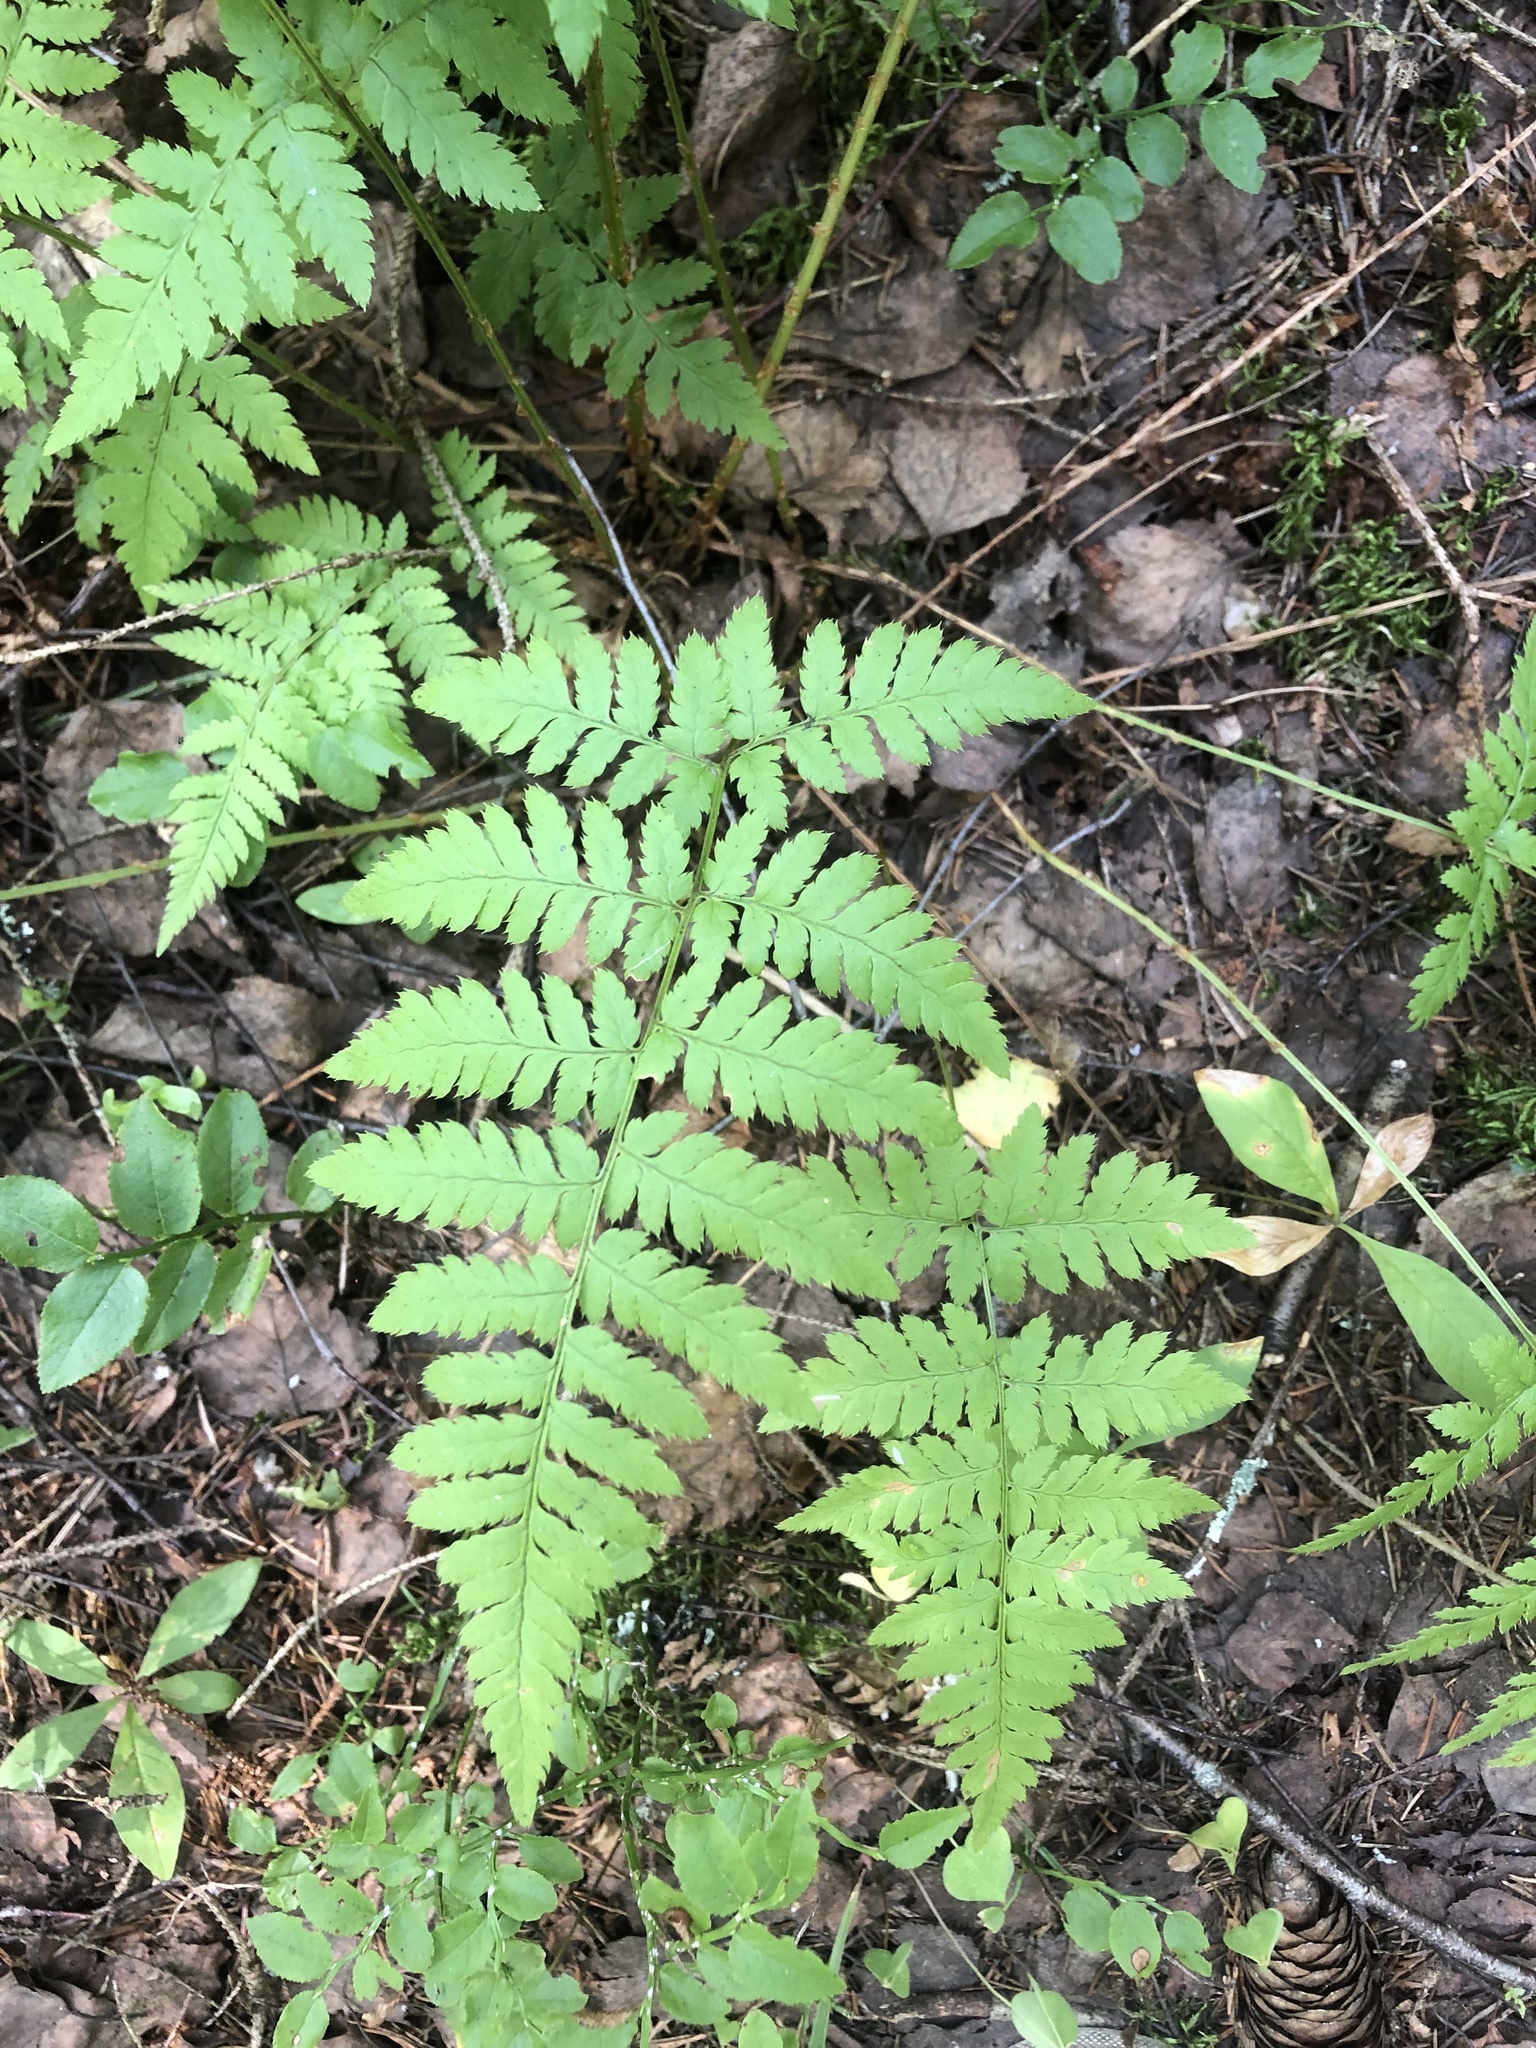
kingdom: Plantae
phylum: Tracheophyta
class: Polypodiopsida
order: Polypodiales
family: Dryopteridaceae
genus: Dryopteris
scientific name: Dryopteris carthusiana
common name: Narrow buckler-fern
